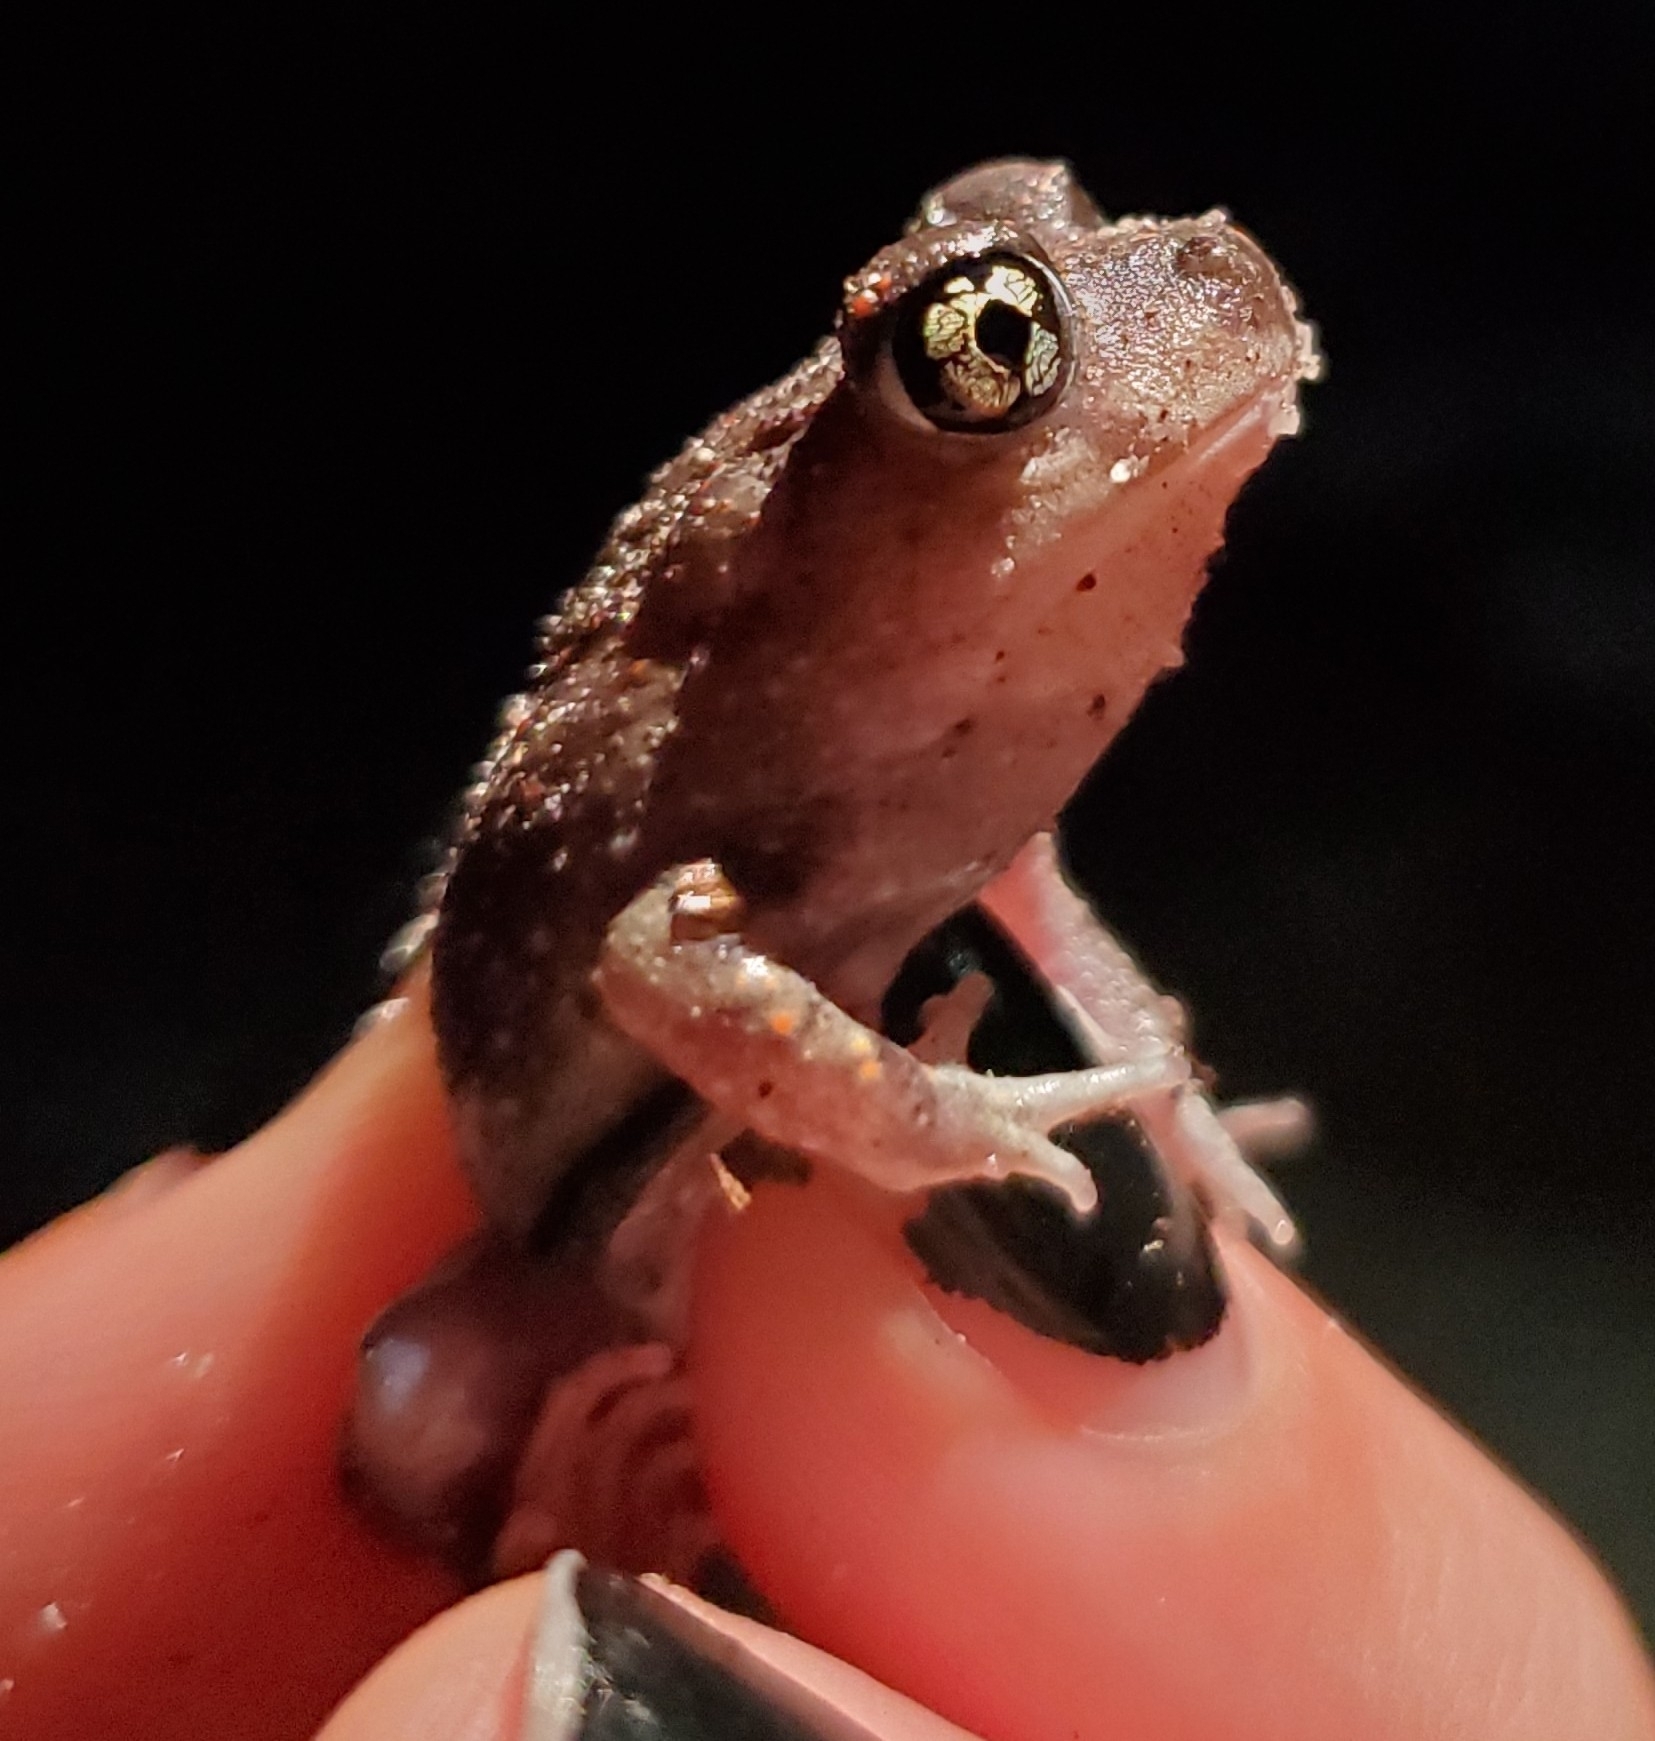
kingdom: Animalia
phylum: Chordata
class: Amphibia
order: Anura
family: Scaphiopodidae
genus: Scaphiopus
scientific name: Scaphiopus holbrookii
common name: Eastern spadefoot toad
